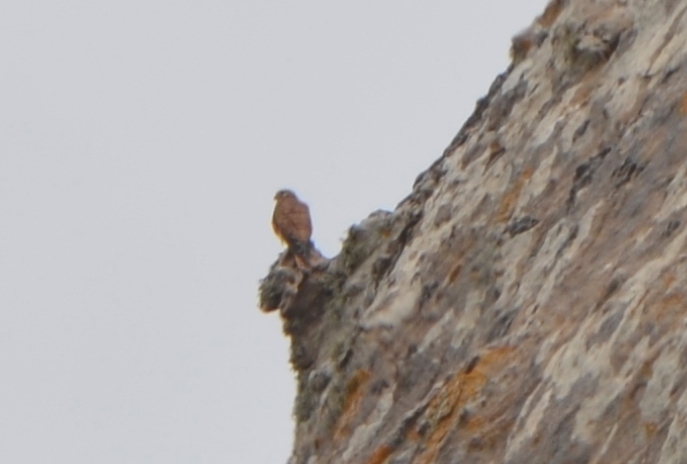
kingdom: Animalia
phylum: Chordata
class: Aves
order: Falconiformes
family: Falconidae
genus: Falco
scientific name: Falco tinnunculus
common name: Common kestrel
